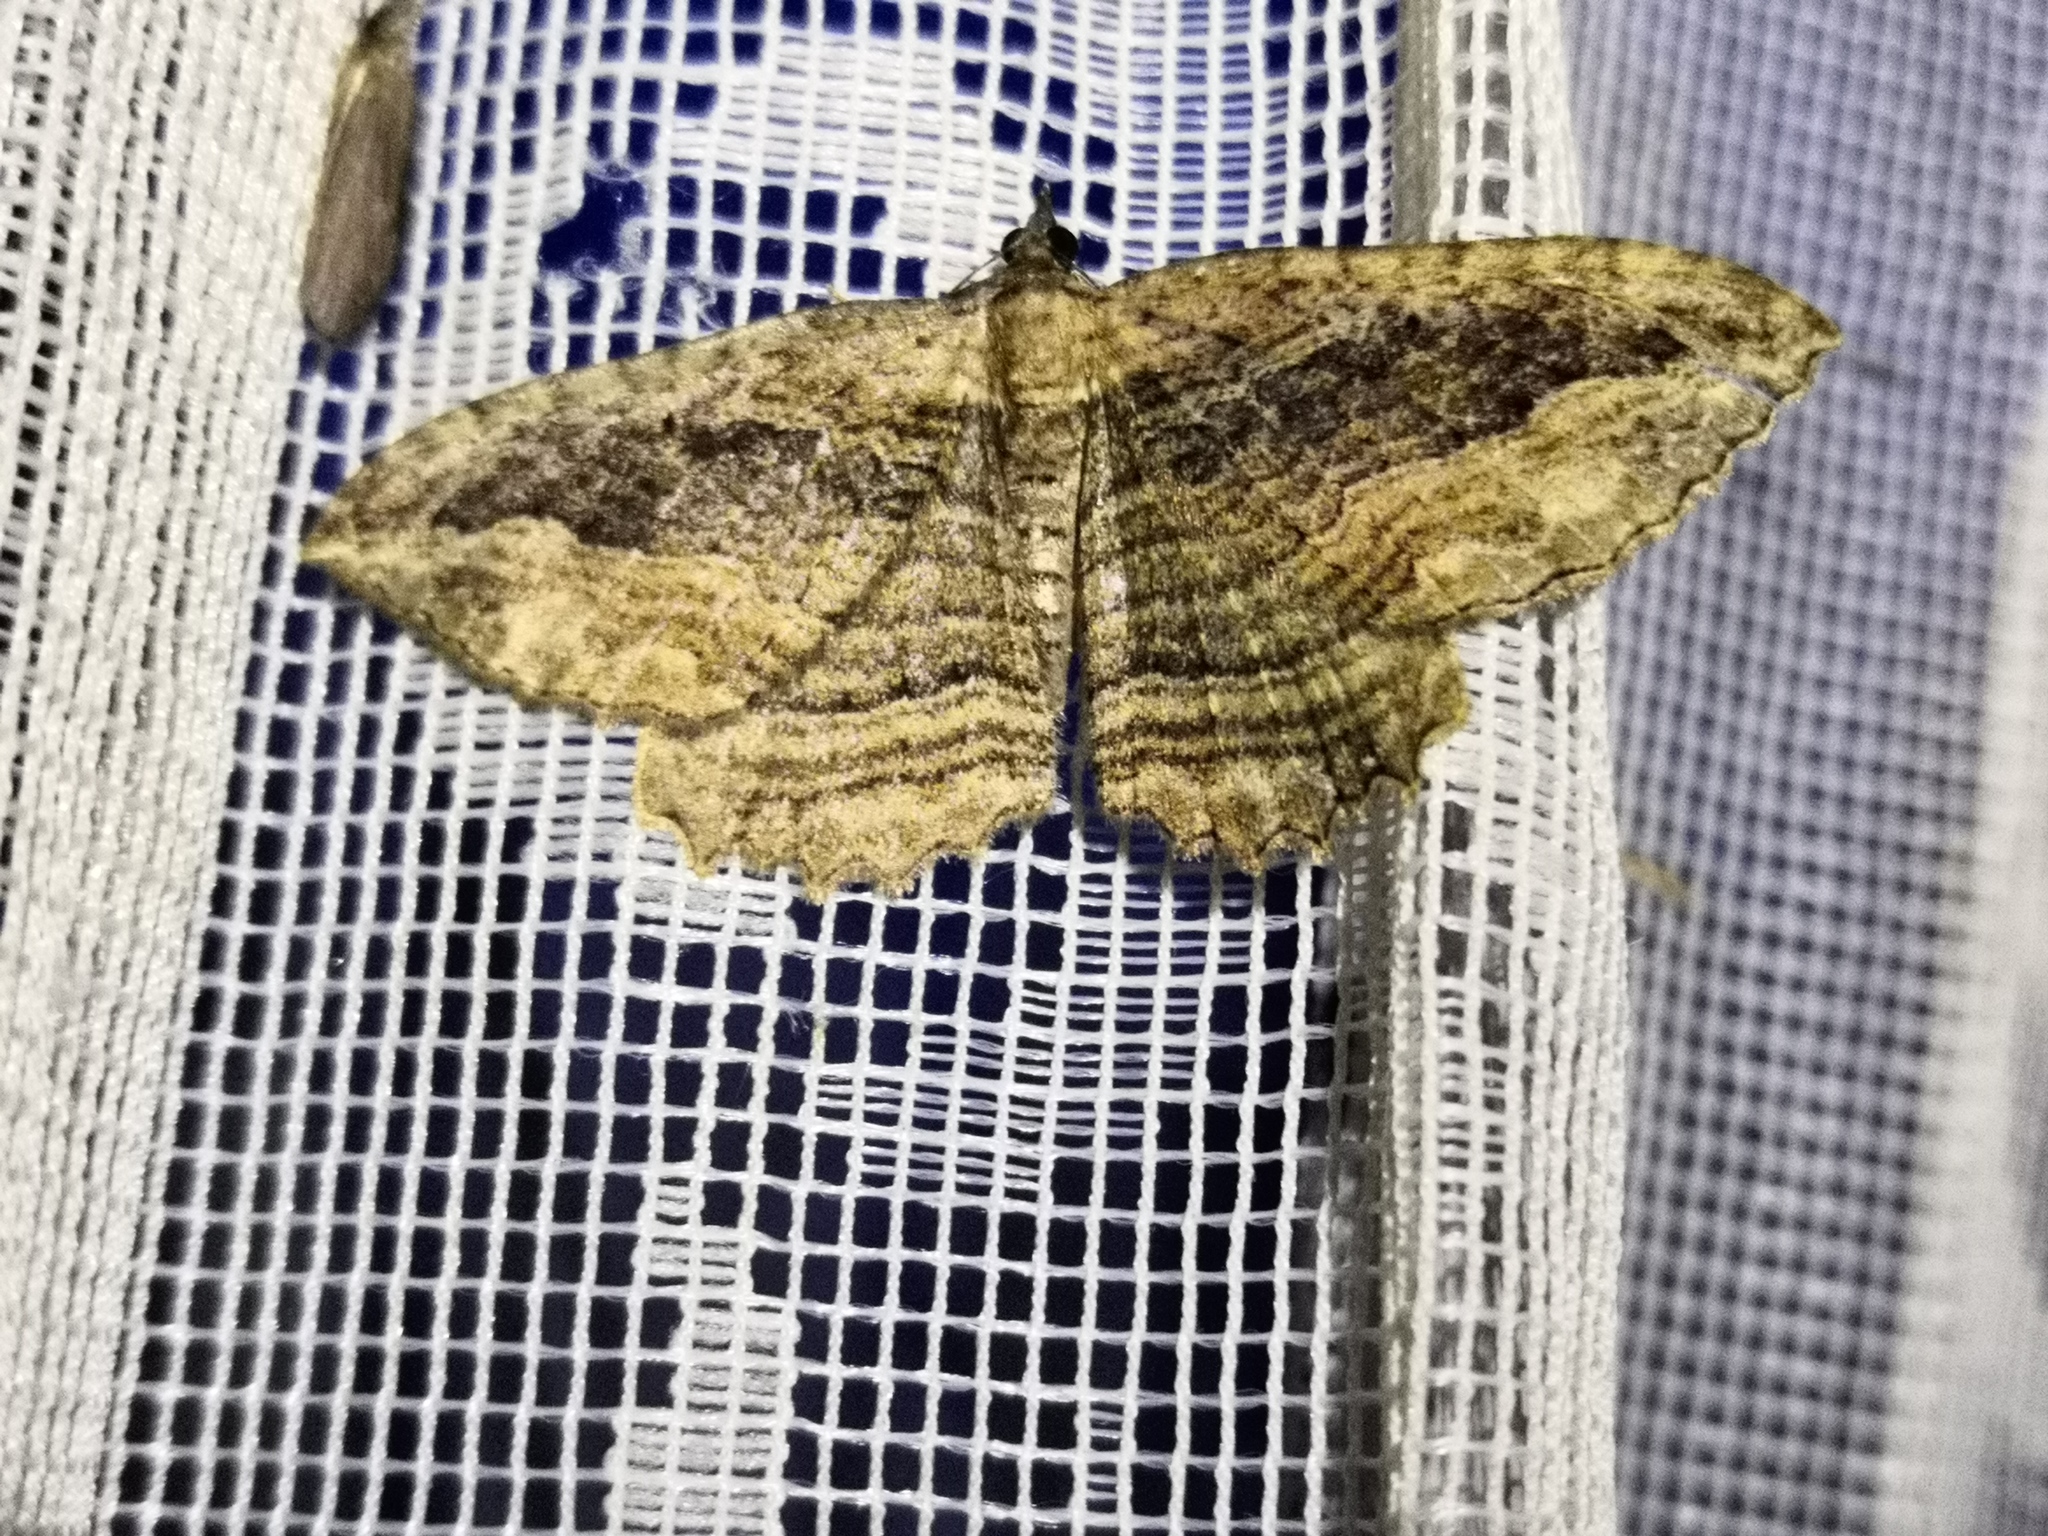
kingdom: Animalia
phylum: Arthropoda
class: Insecta
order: Lepidoptera
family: Geometridae
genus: Philereme
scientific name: Philereme transversata
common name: Dark umber
